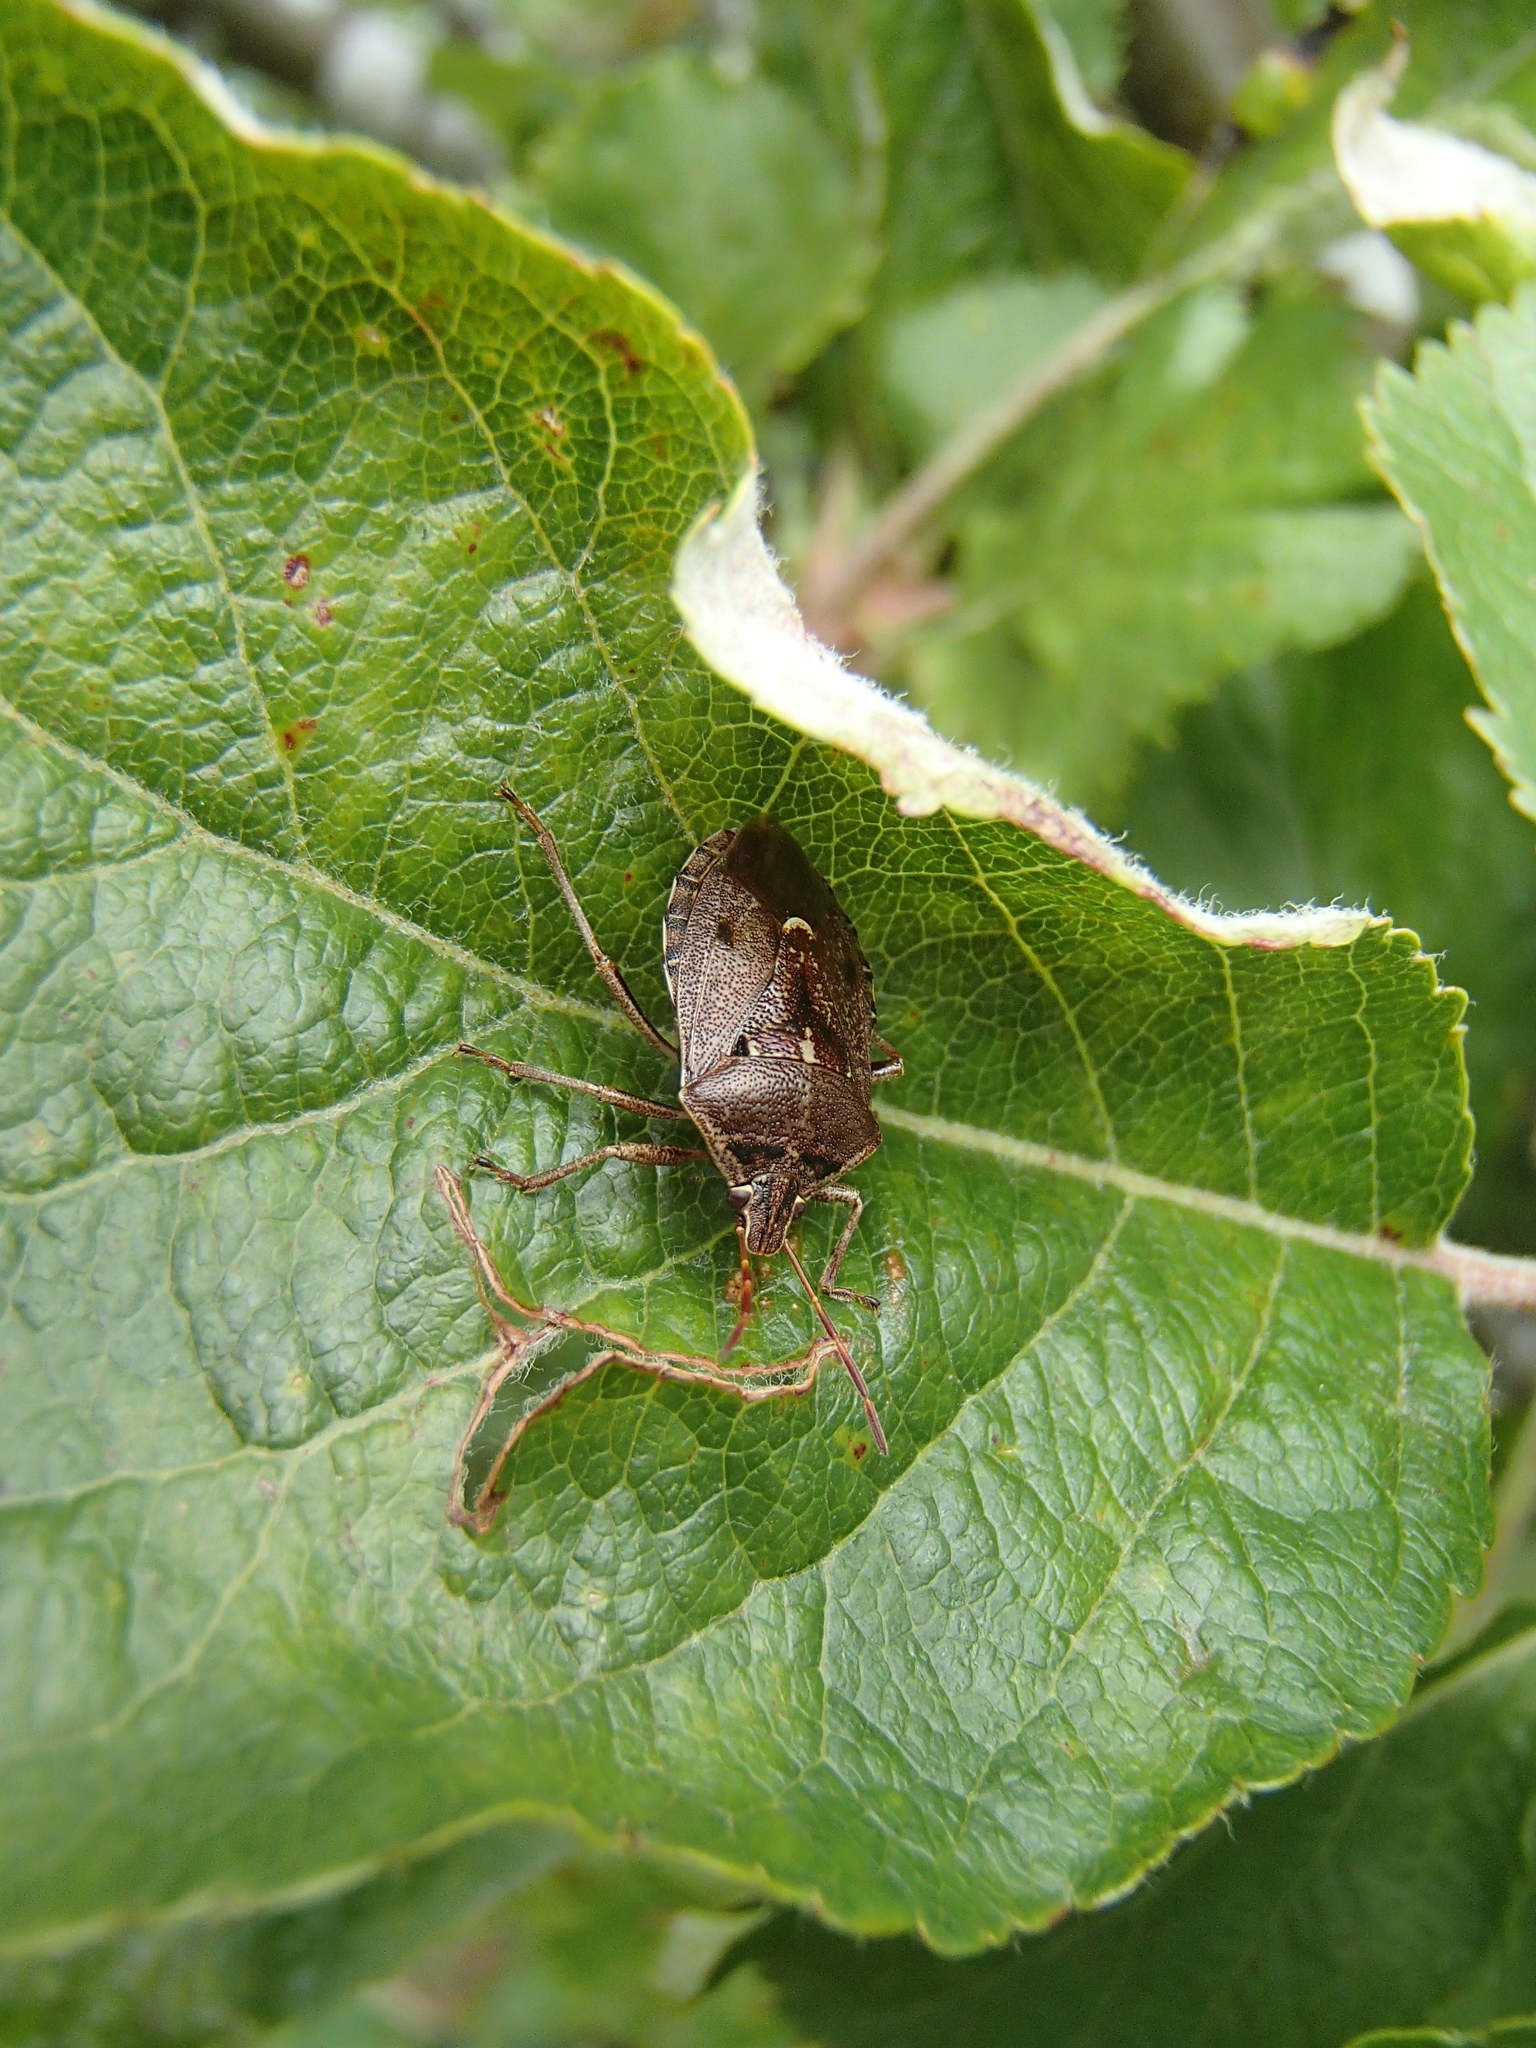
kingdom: Animalia
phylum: Arthropoda
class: Insecta
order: Hemiptera
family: Pentatomidae
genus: Cermatulus
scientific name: Cermatulus nasalis
